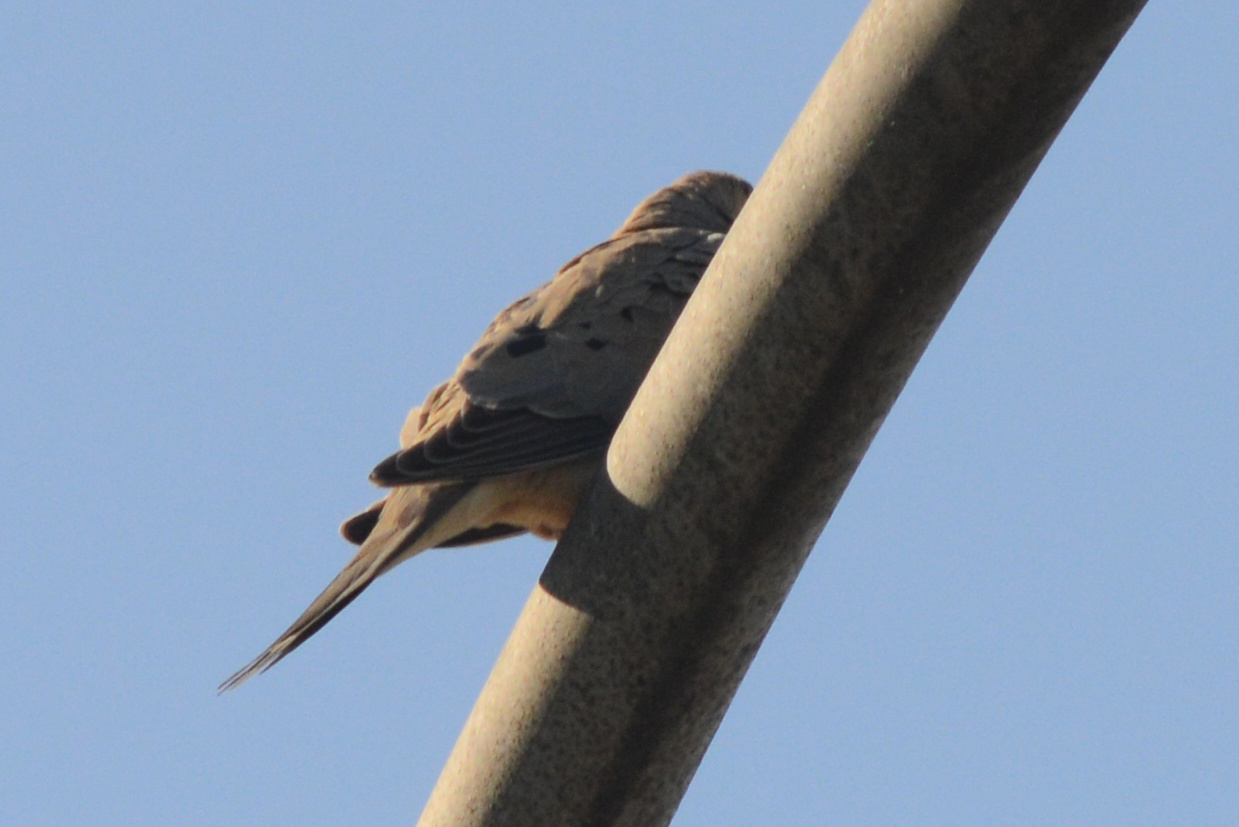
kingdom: Animalia
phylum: Chordata
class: Aves
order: Columbiformes
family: Columbidae
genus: Zenaida
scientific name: Zenaida macroura
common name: Mourning dove
